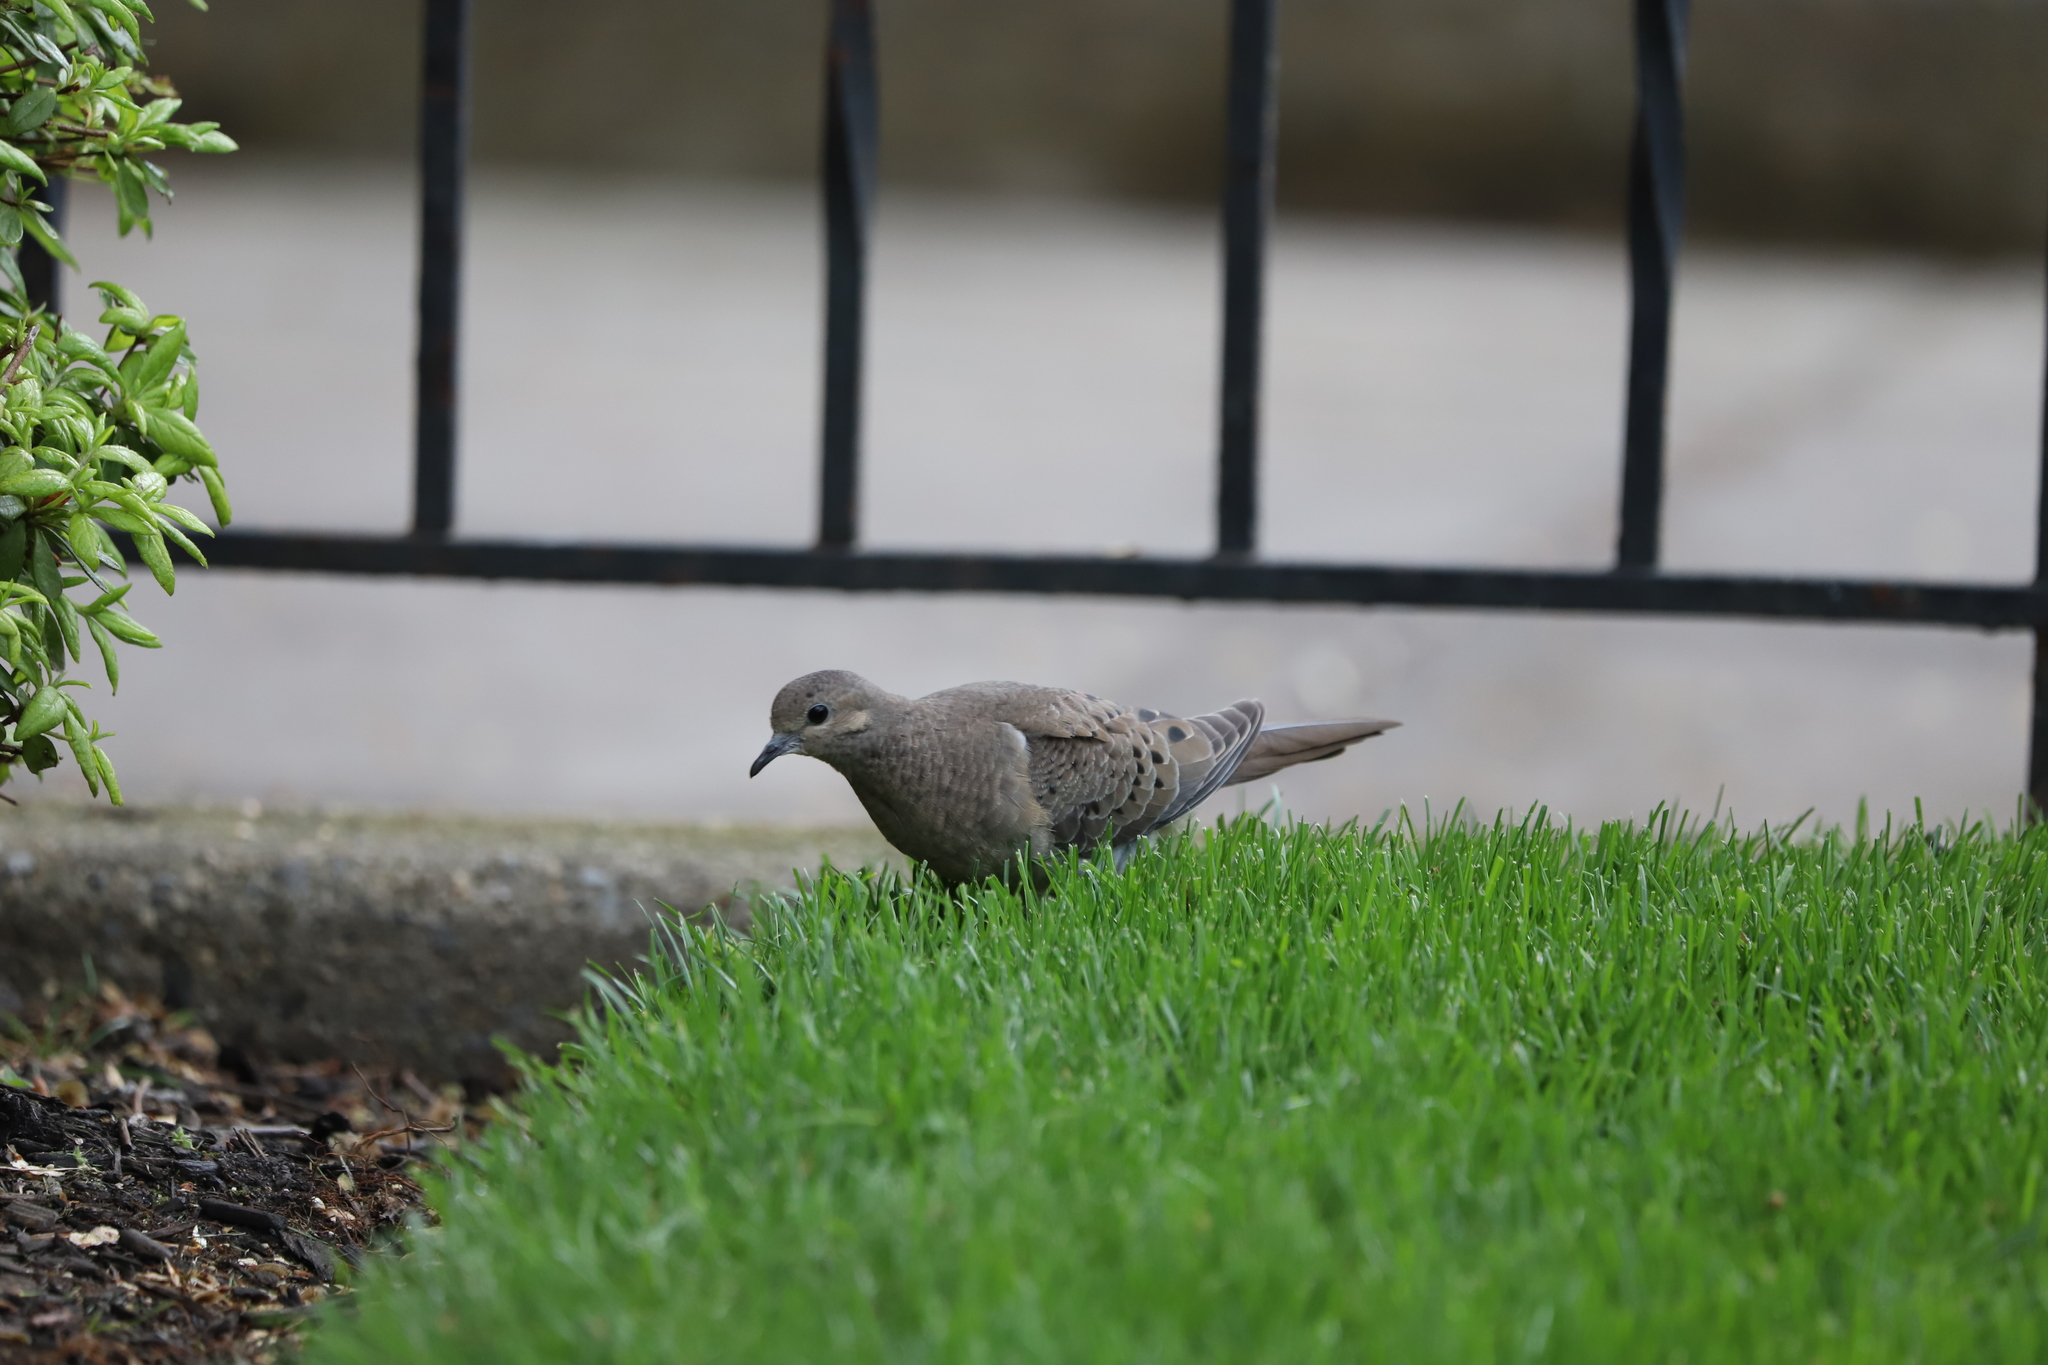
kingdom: Animalia
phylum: Chordata
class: Aves
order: Columbiformes
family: Columbidae
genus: Zenaida
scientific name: Zenaida macroura
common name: Mourning dove
